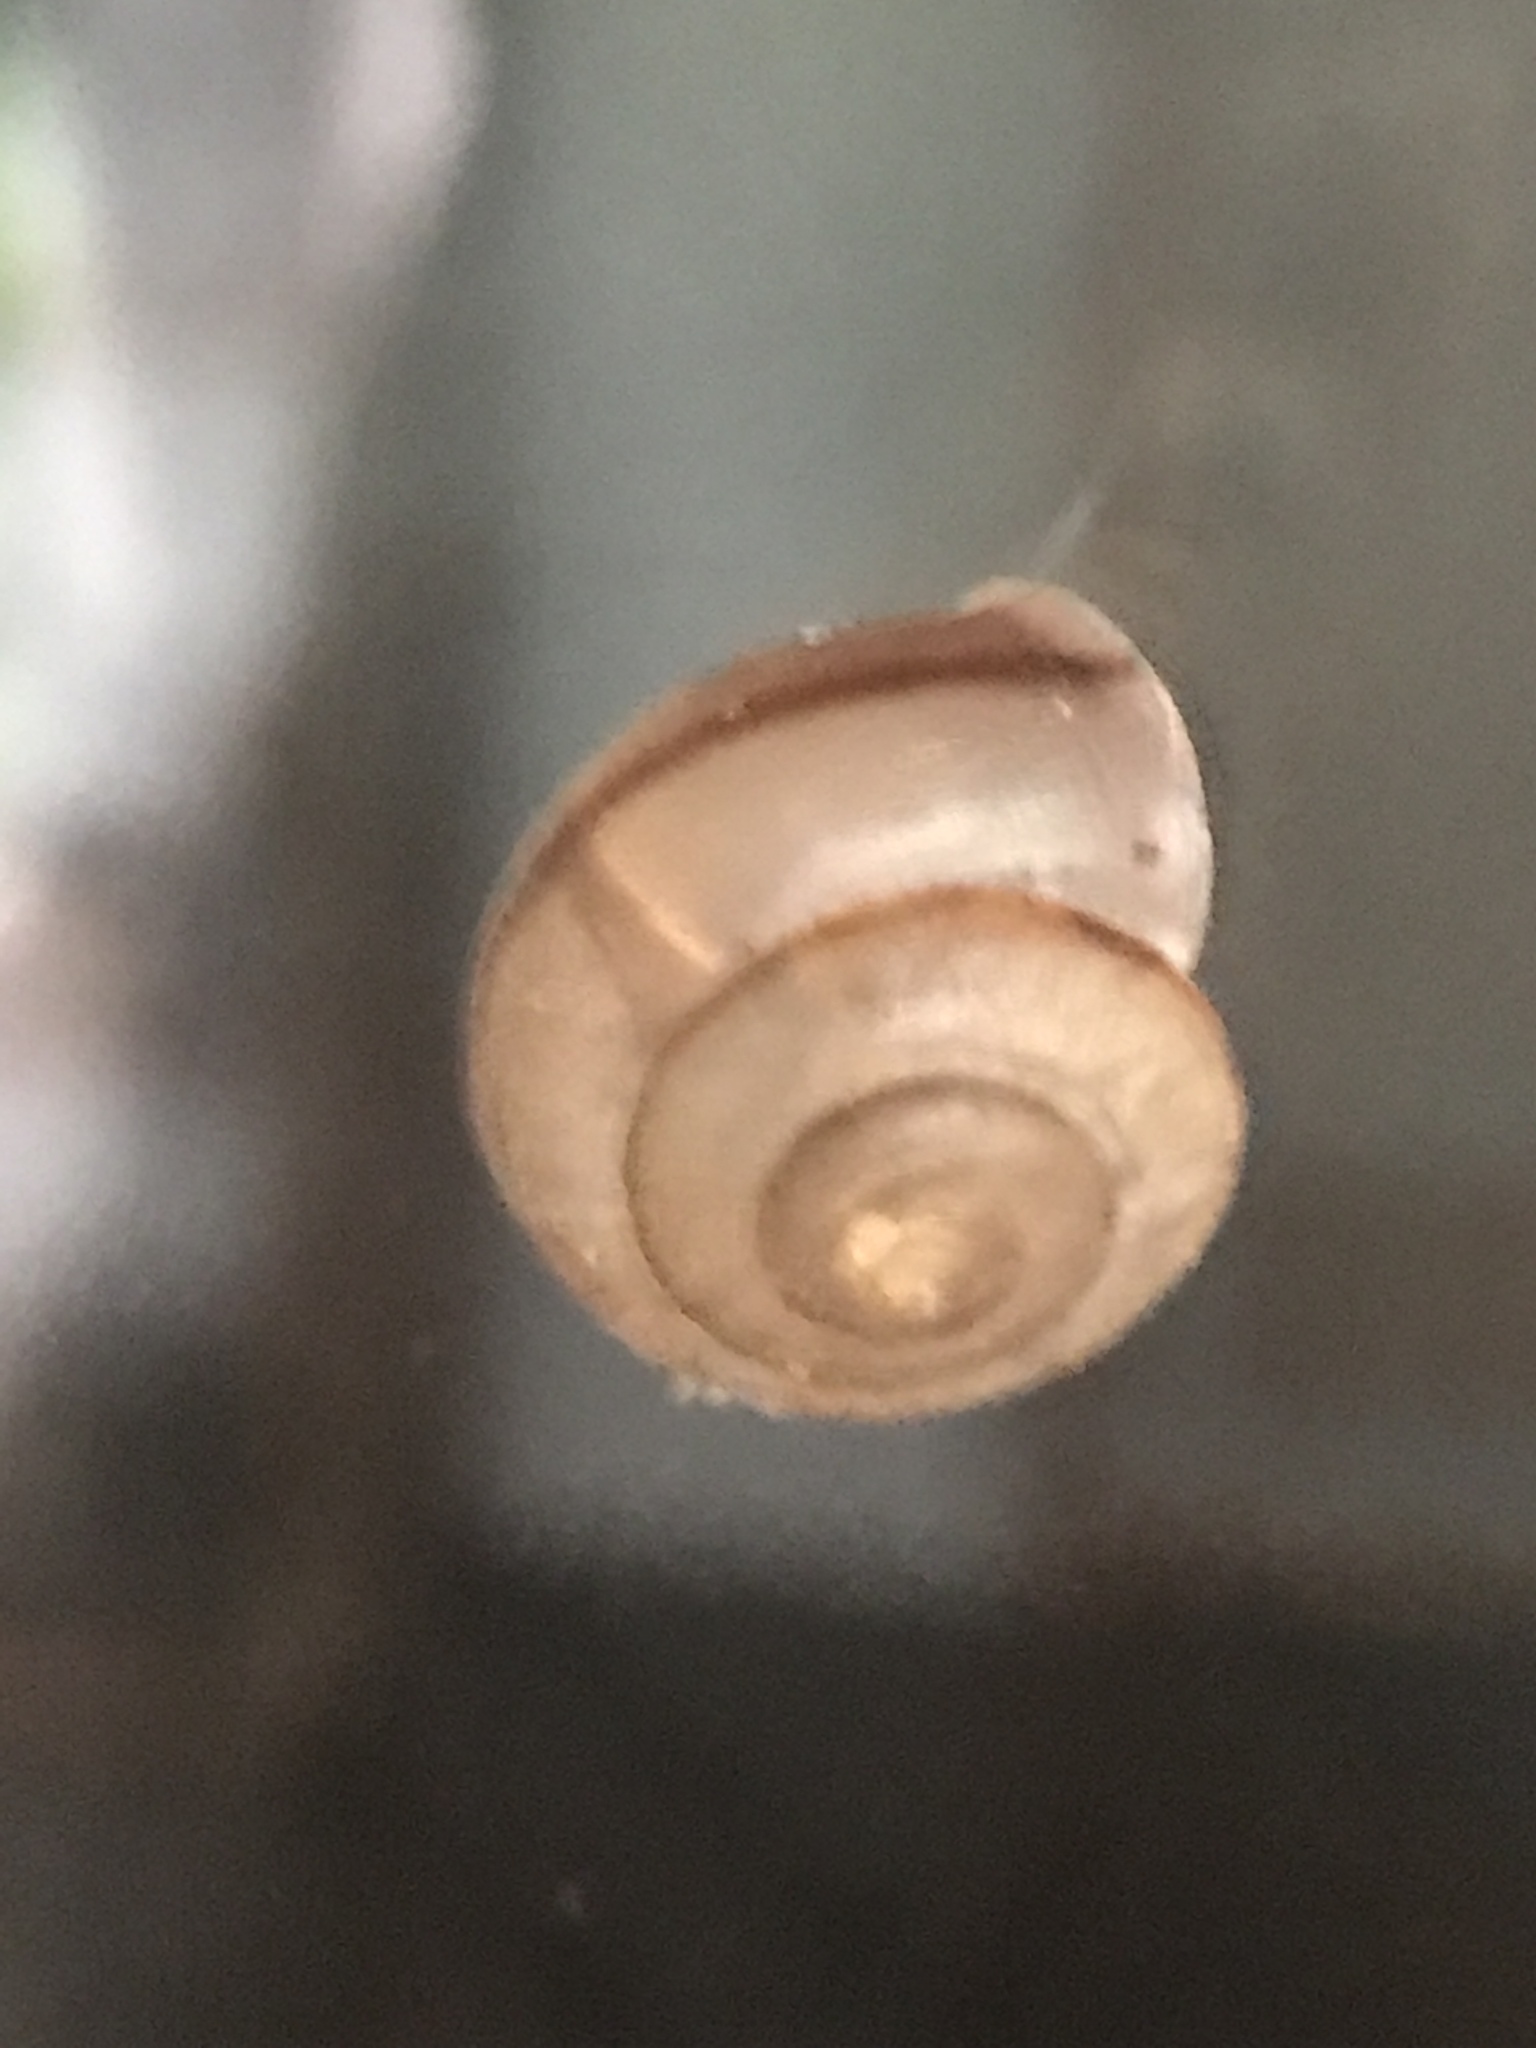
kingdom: Animalia
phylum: Mollusca
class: Gastropoda
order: Stylommatophora
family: Camaenidae
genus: Bradybaena
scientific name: Bradybaena similaris
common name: Asian trampsnail
